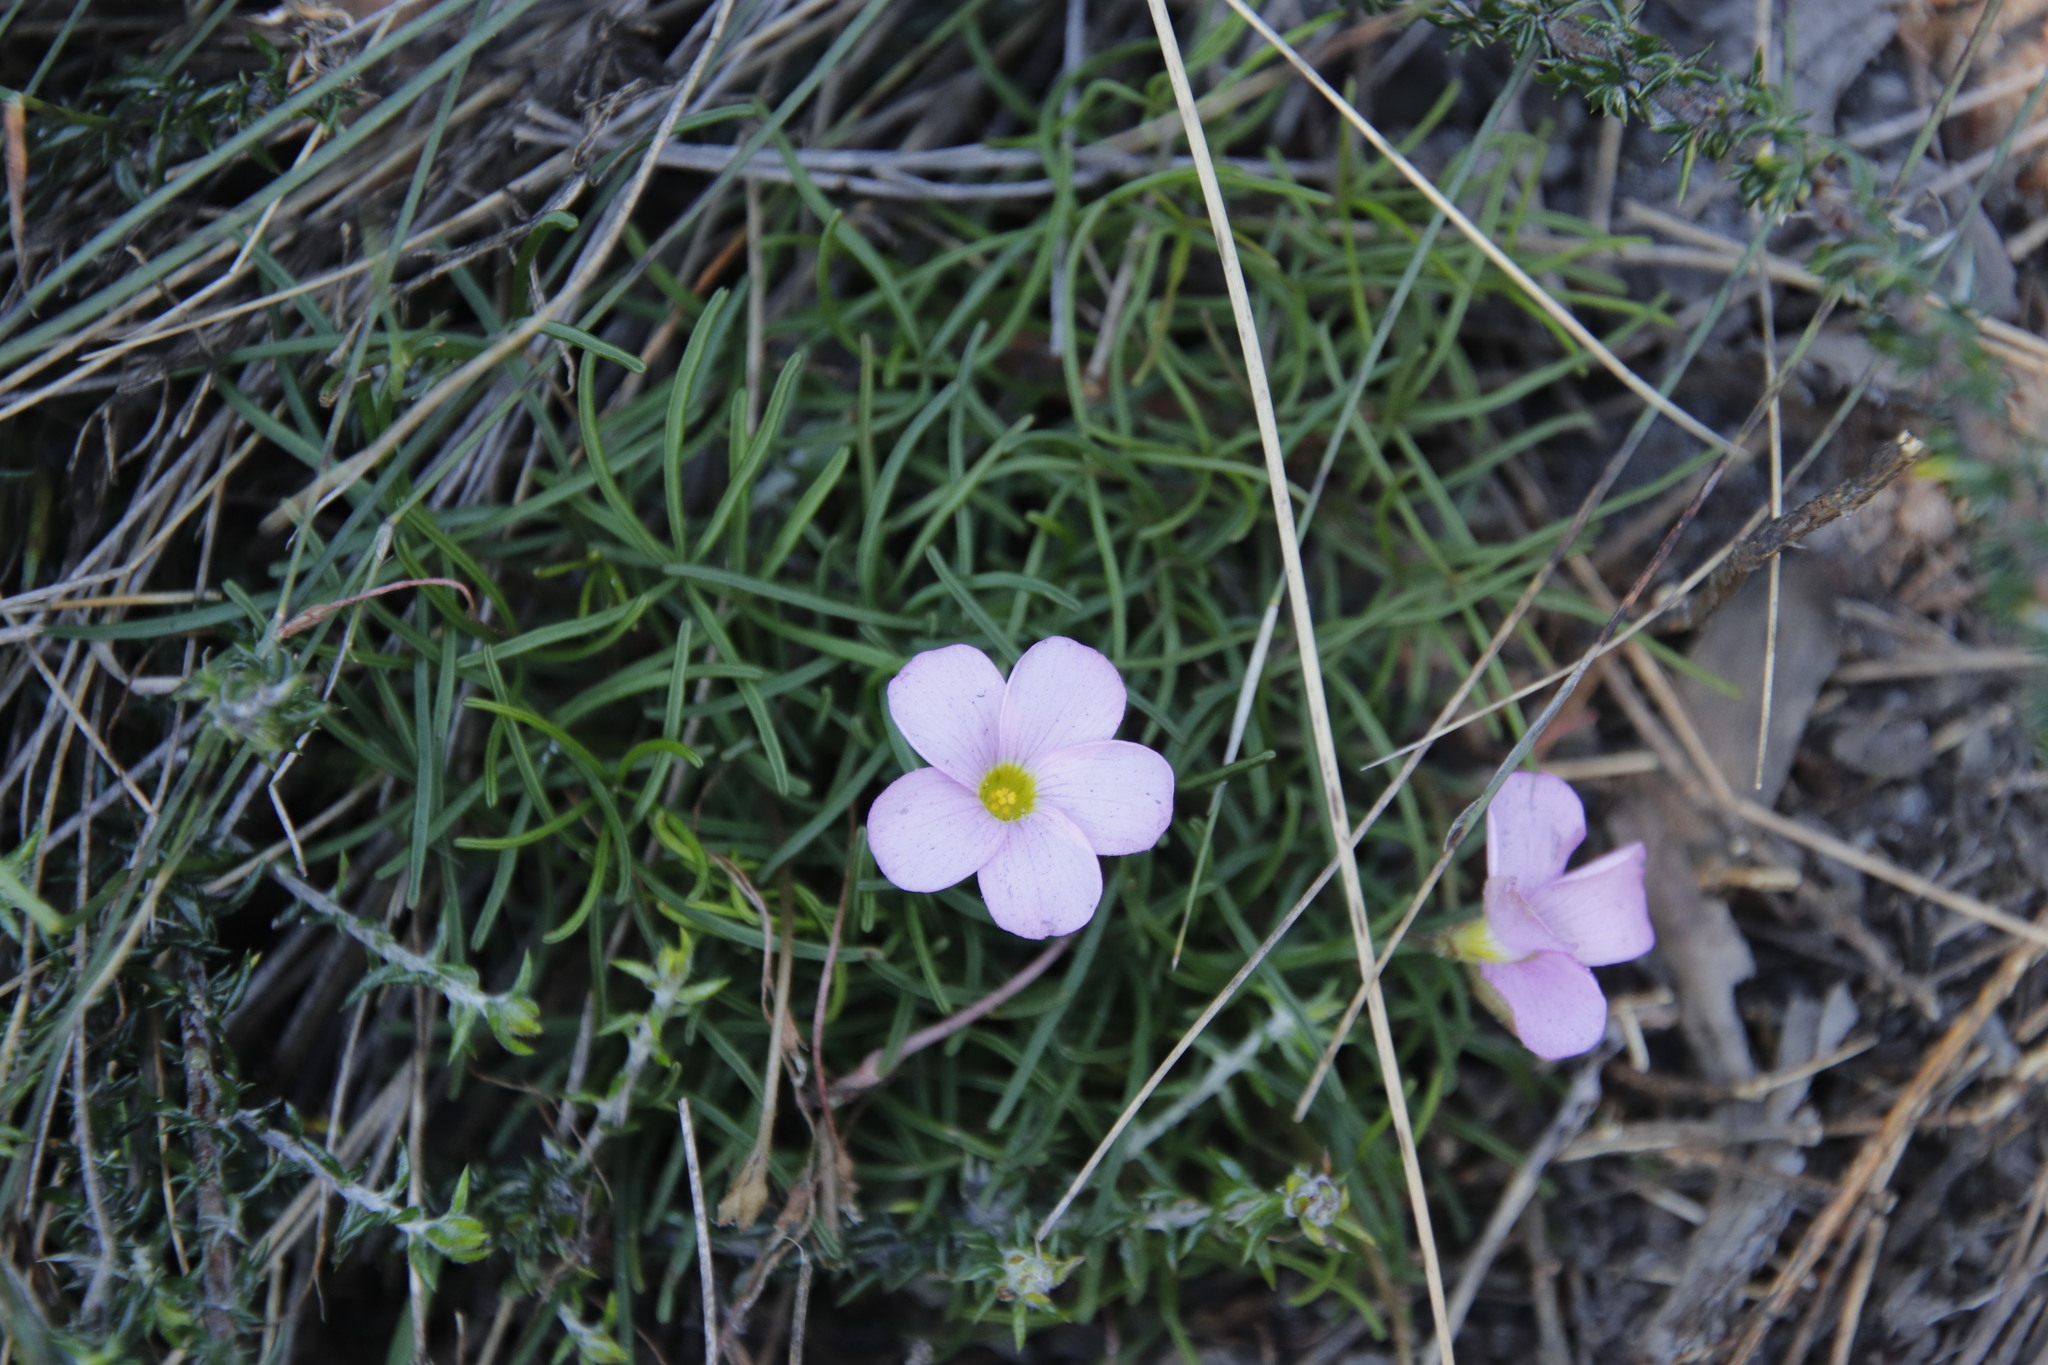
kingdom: Plantae
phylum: Tracheophyta
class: Magnoliopsida
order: Oxalidales
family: Oxalidaceae
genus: Oxalis
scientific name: Oxalis polyphylla
